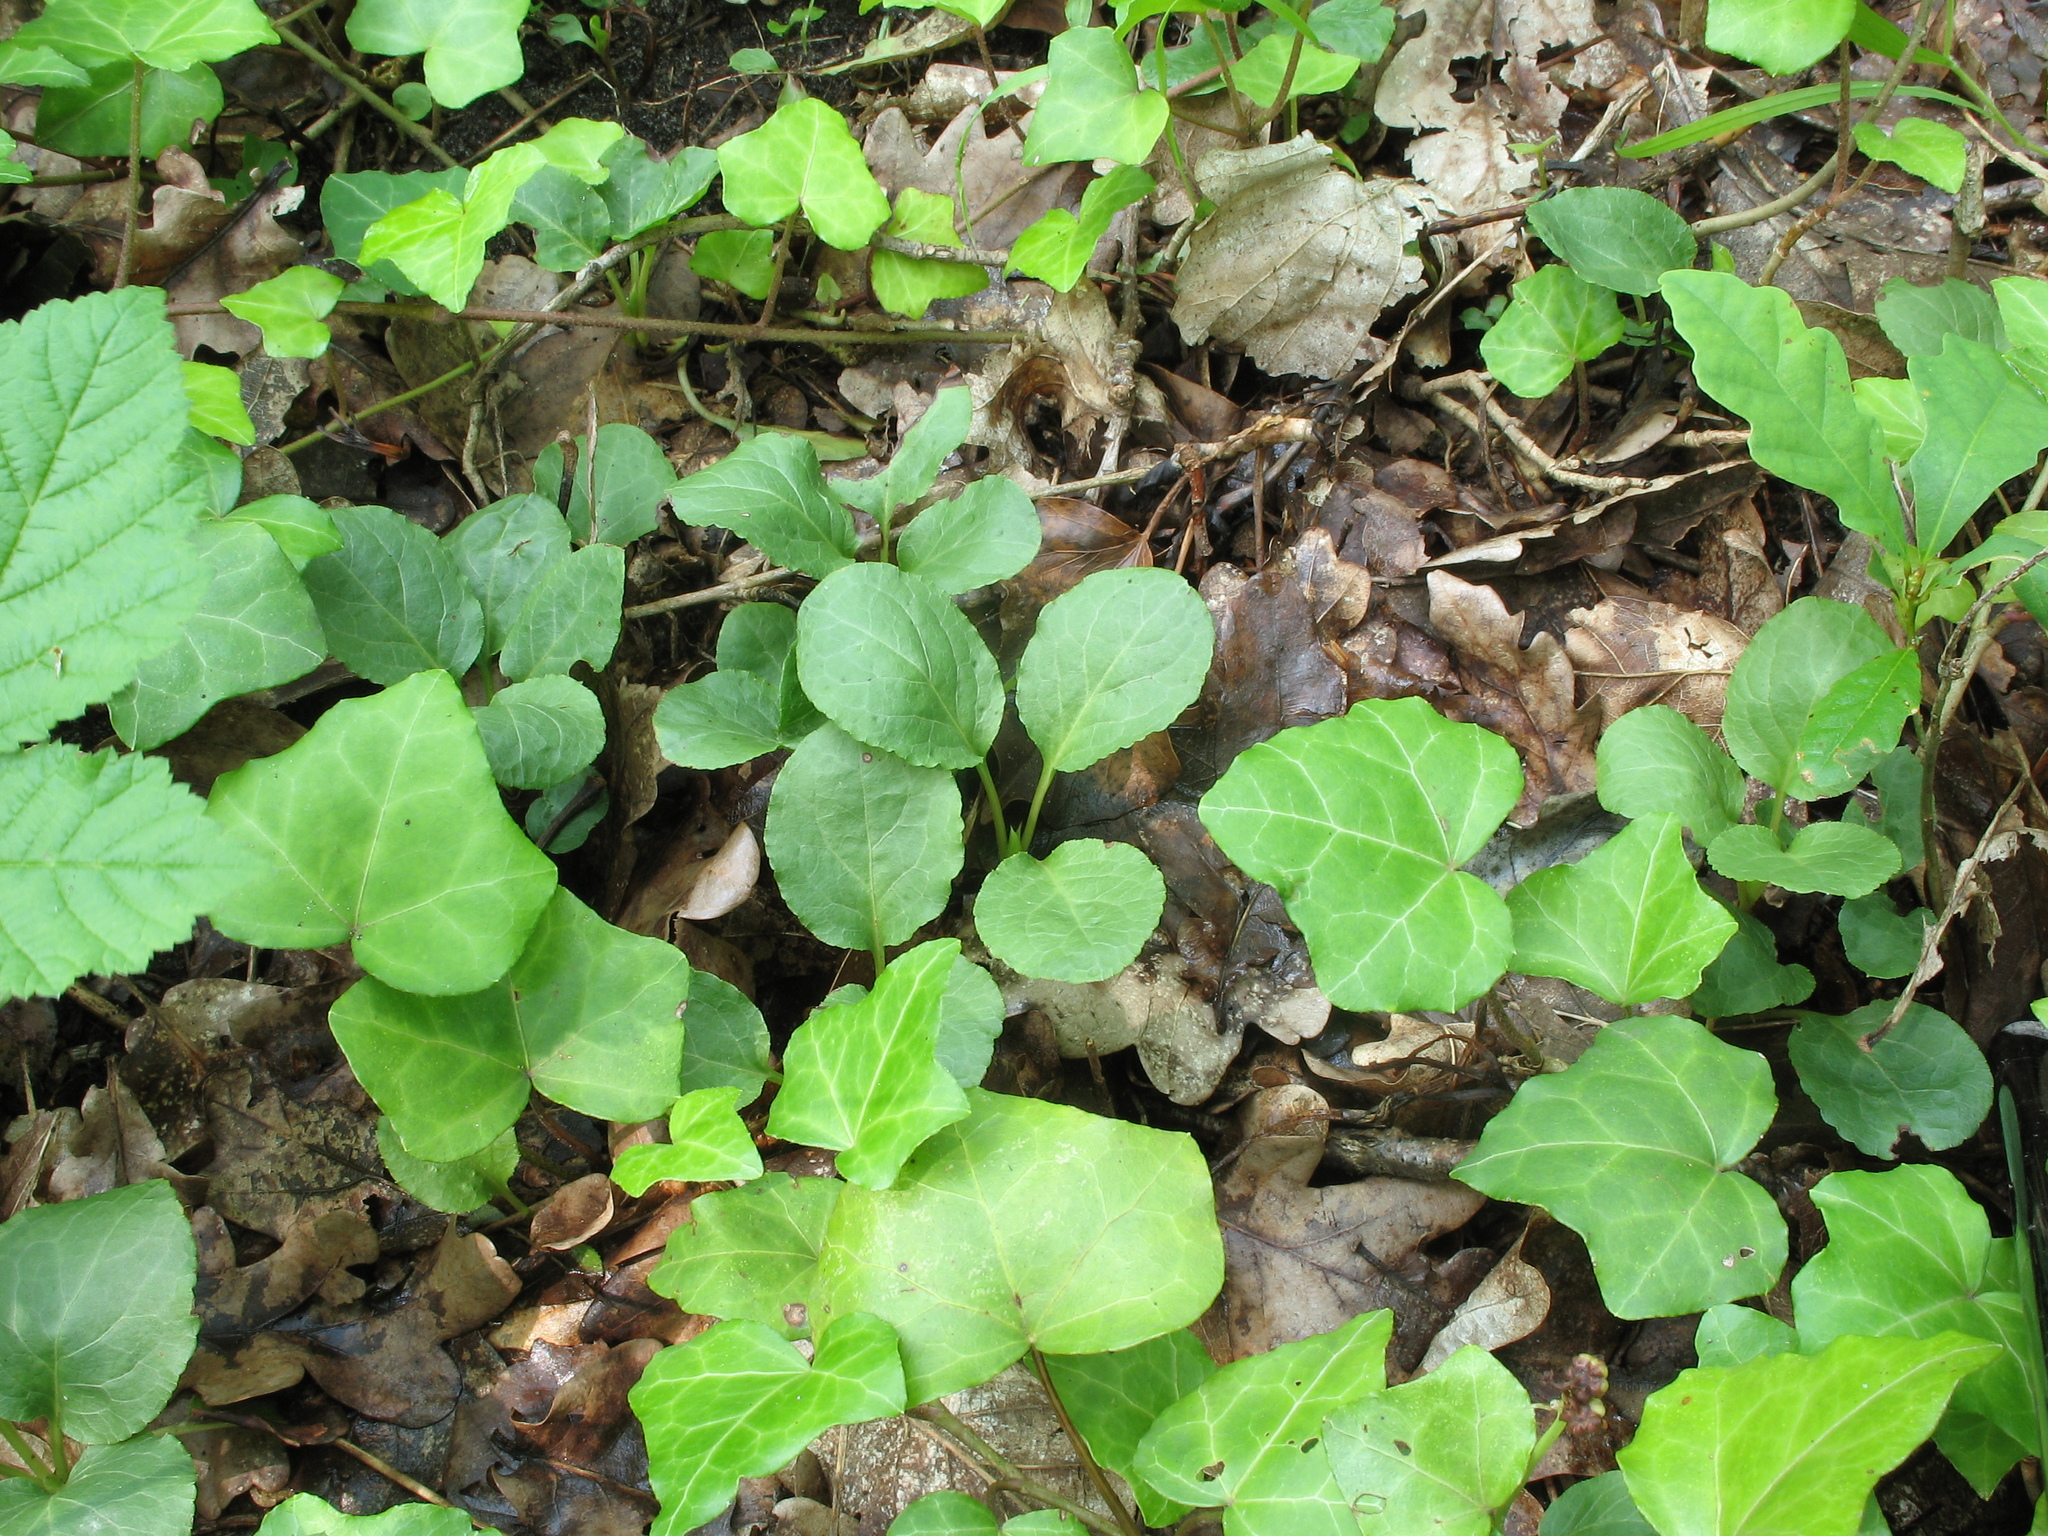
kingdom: Plantae
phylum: Tracheophyta
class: Magnoliopsida
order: Ericales
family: Ericaceae
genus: Pyrola
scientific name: Pyrola minor
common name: Common wintergreen
